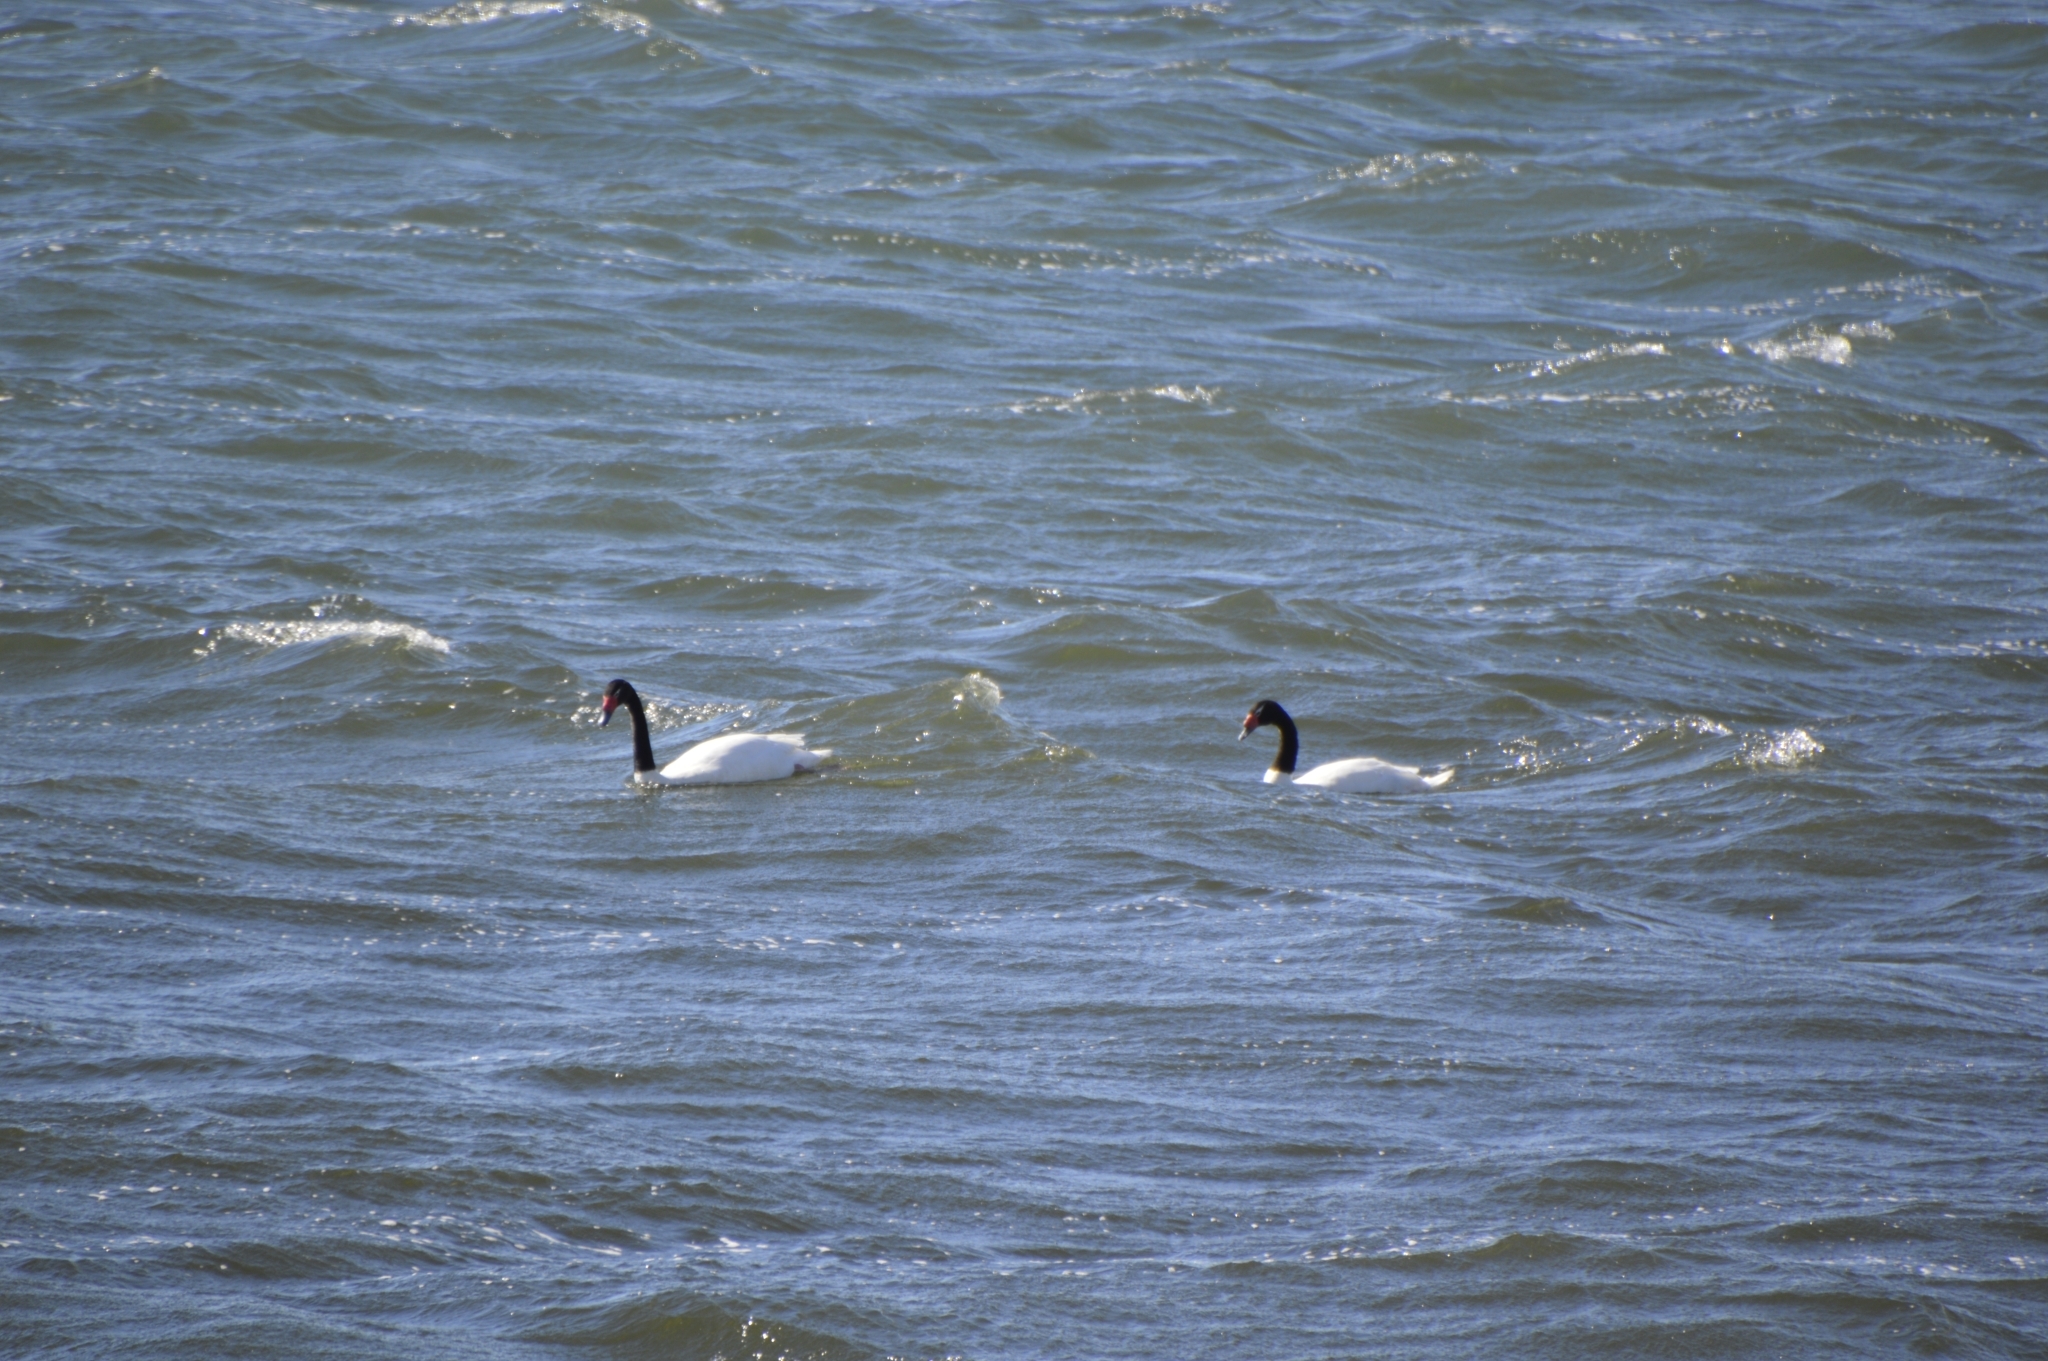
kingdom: Animalia
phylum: Chordata
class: Aves
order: Anseriformes
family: Anatidae
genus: Cygnus
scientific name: Cygnus melancoryphus
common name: Black-necked swan
